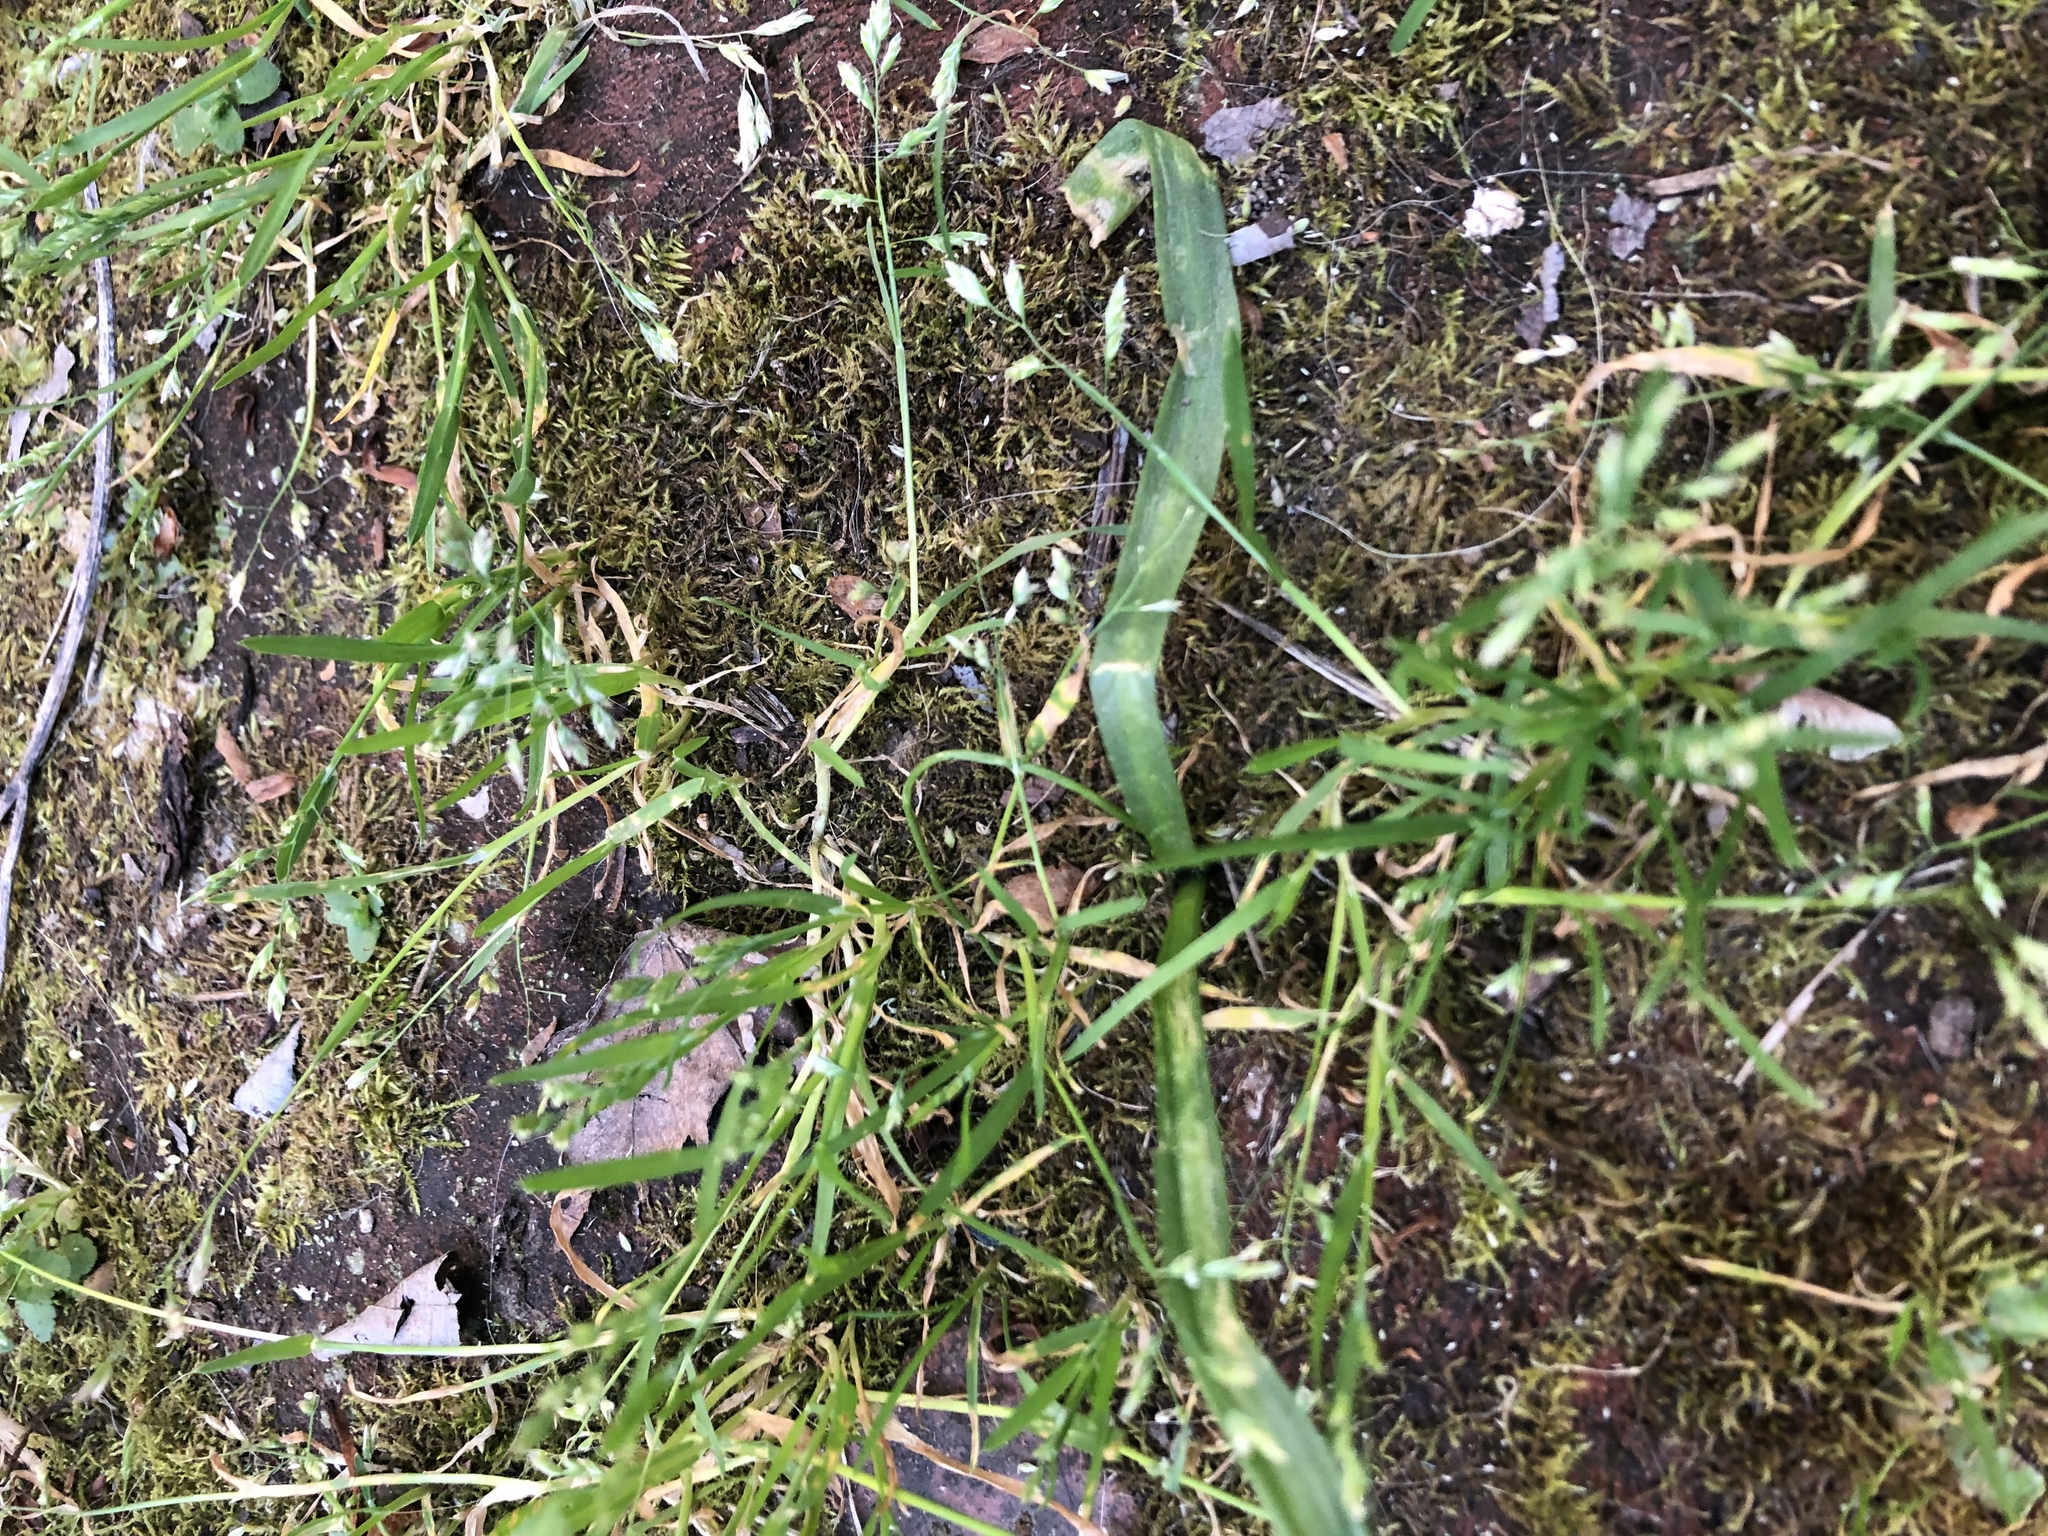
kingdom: Plantae
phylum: Tracheophyta
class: Liliopsida
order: Poales
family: Poaceae
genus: Poa
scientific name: Poa annua
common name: Annual bluegrass
